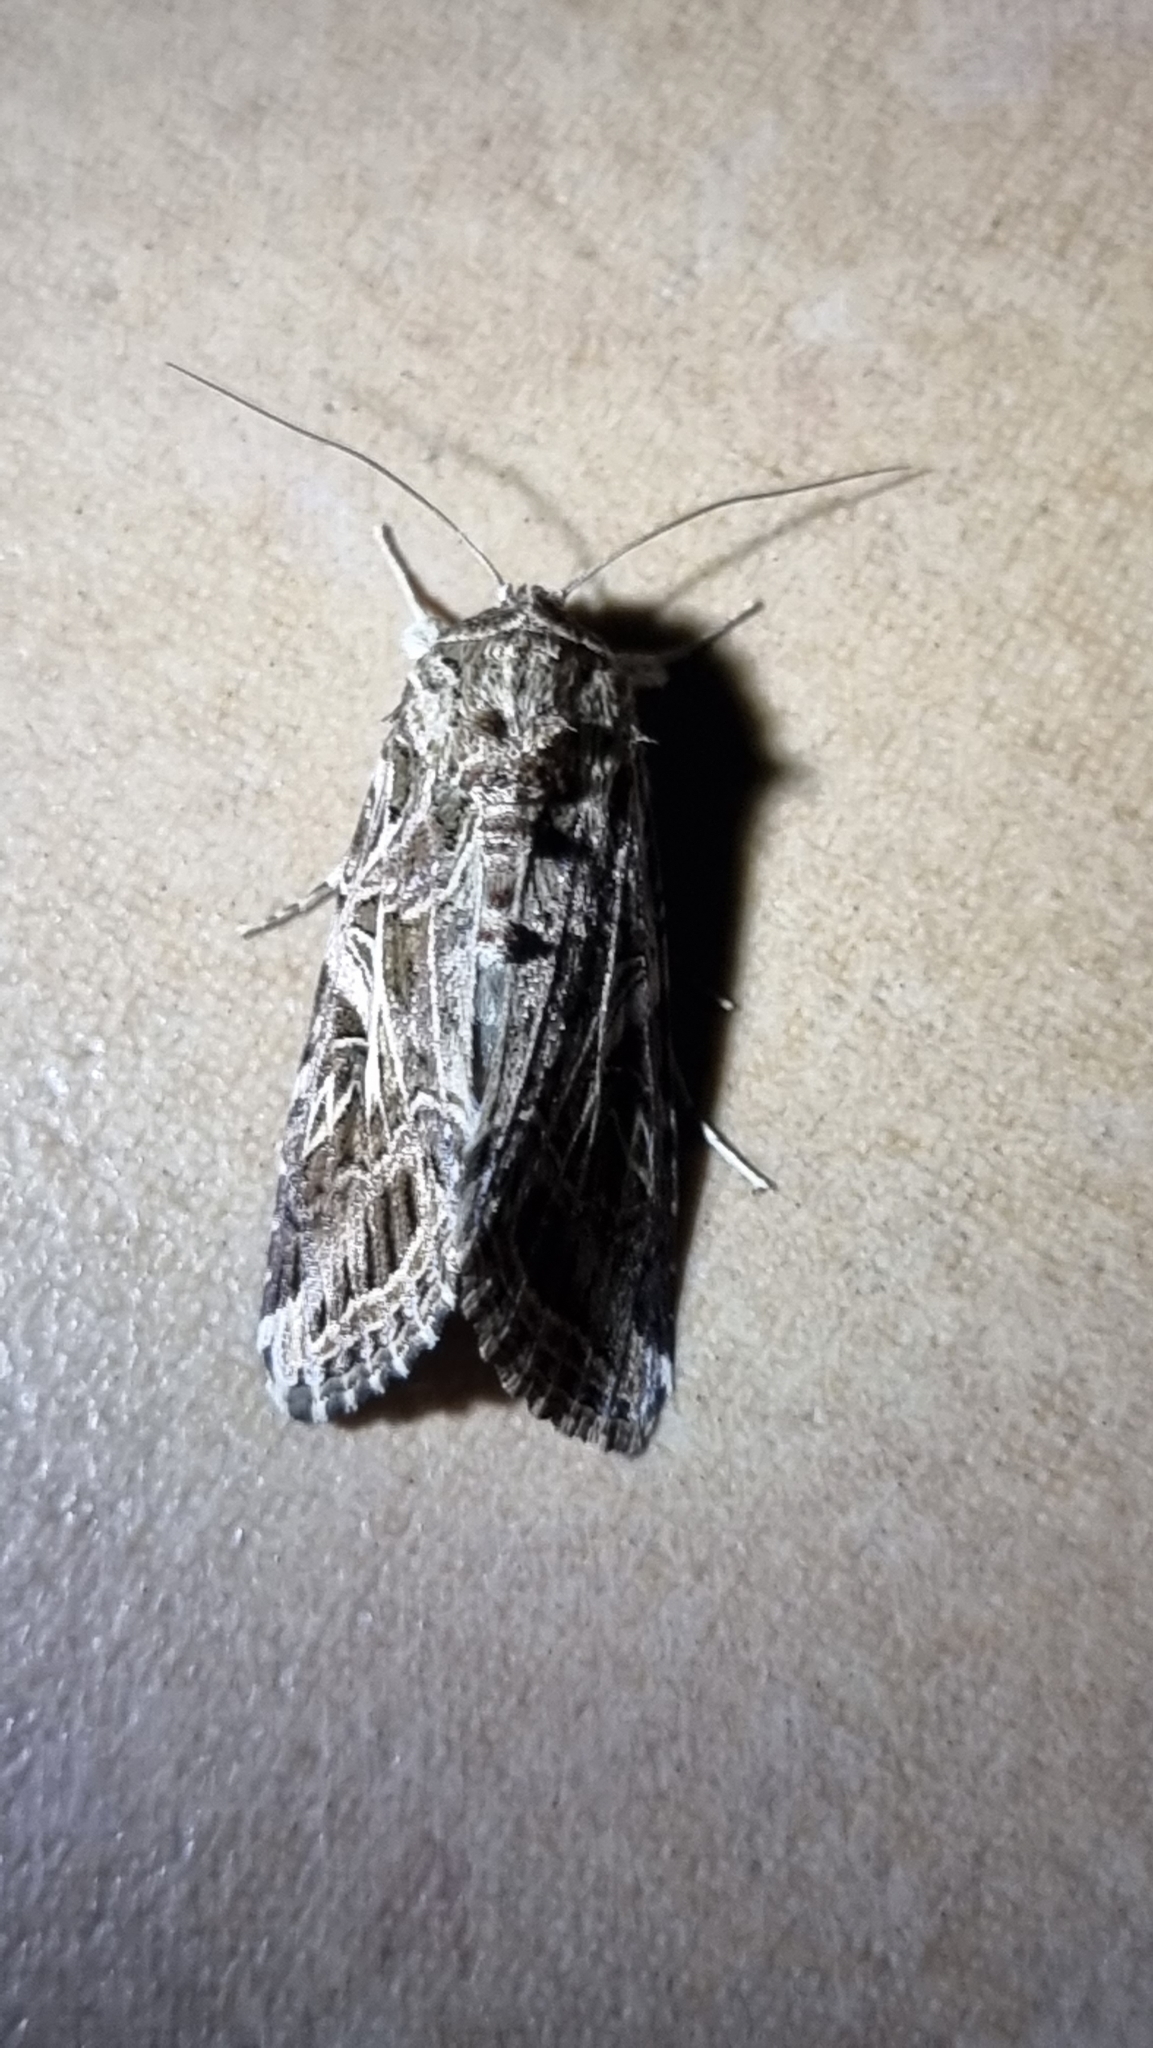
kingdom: Animalia
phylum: Arthropoda
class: Insecta
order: Lepidoptera
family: Noctuidae
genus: Spodoptera
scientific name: Spodoptera litura
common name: Asian cotton leafworm
